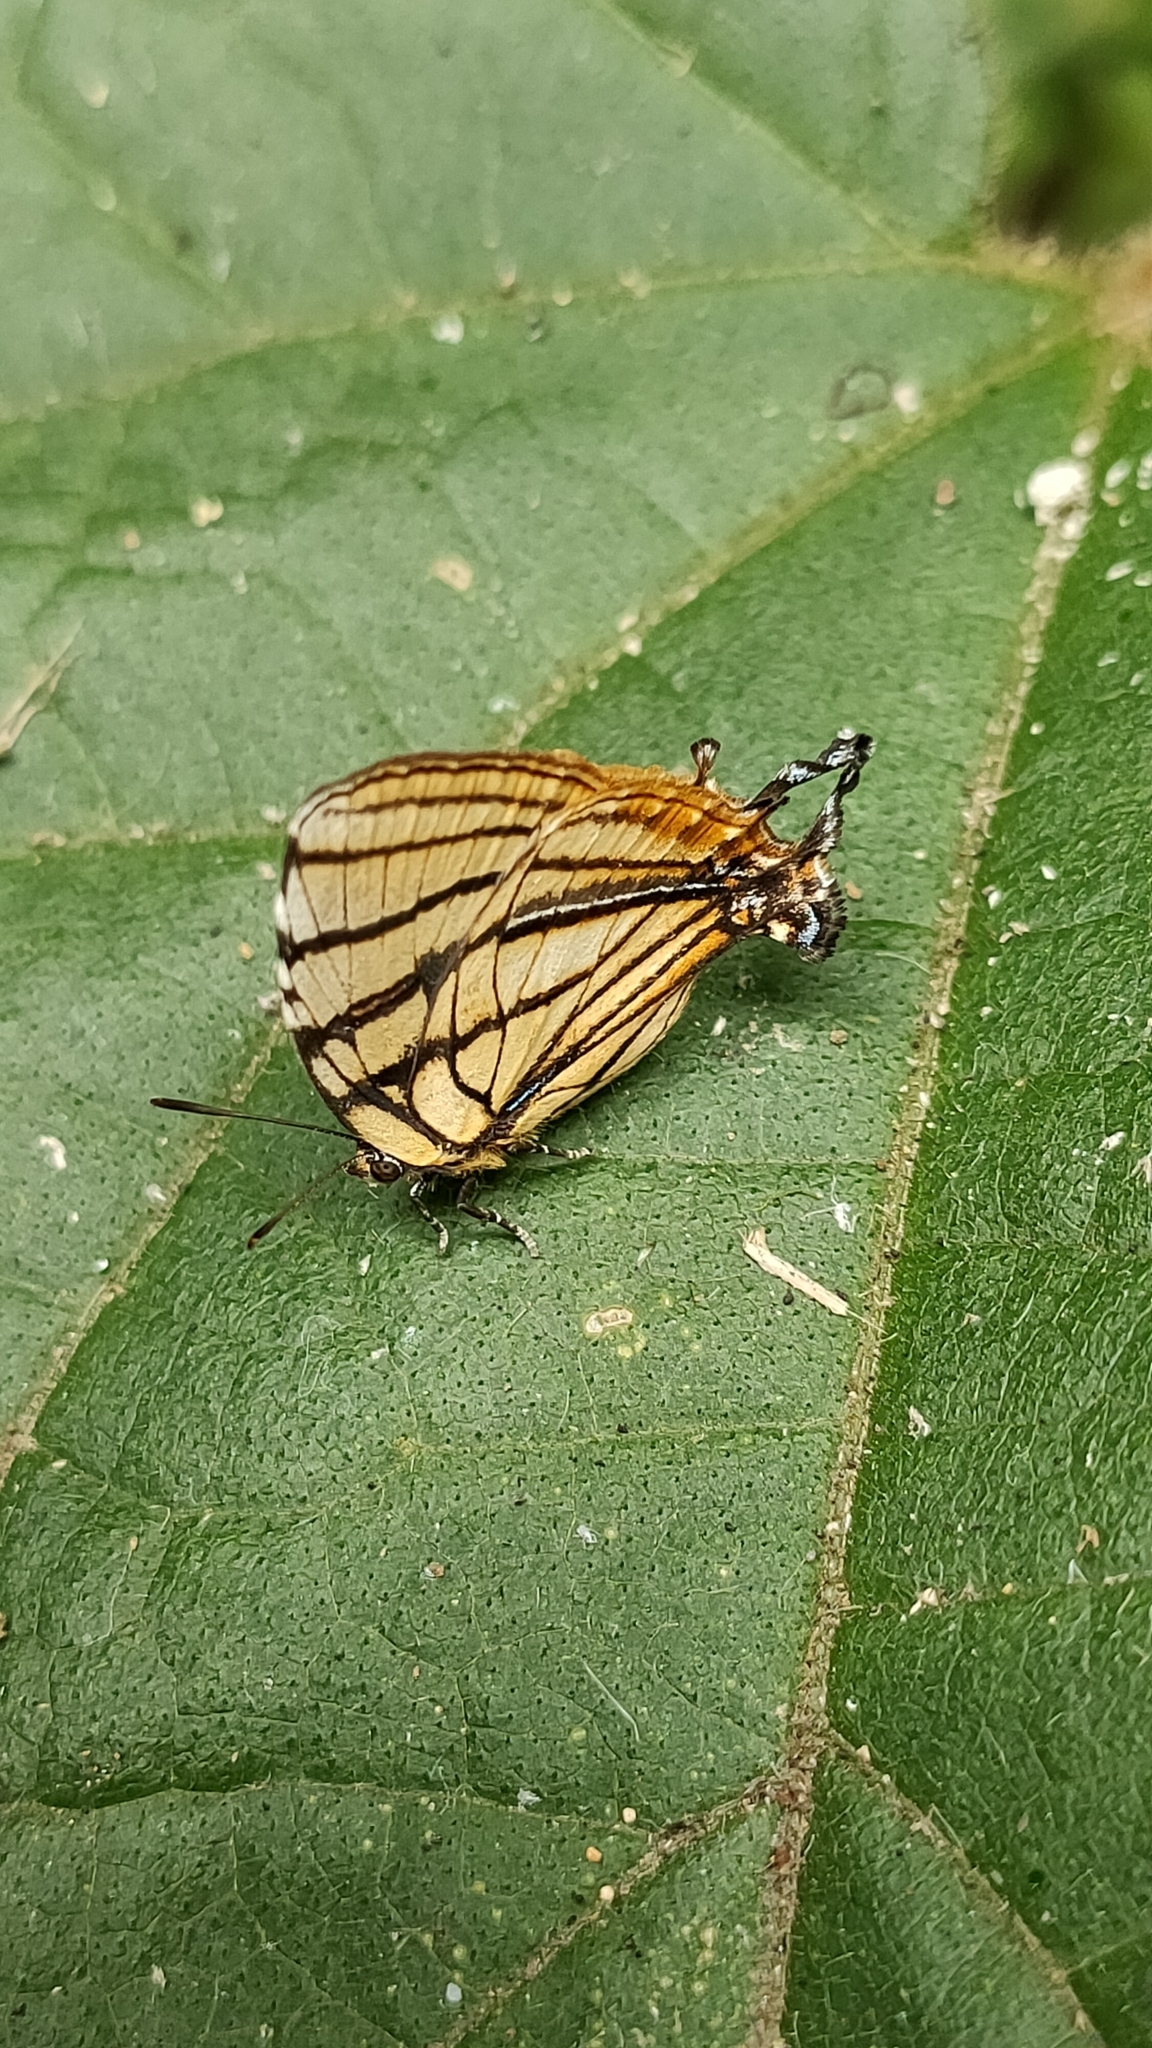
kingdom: Animalia
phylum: Arthropoda
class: Insecta
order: Lepidoptera
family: Lycaenidae
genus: Arawacus
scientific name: Arawacus melibaeus
